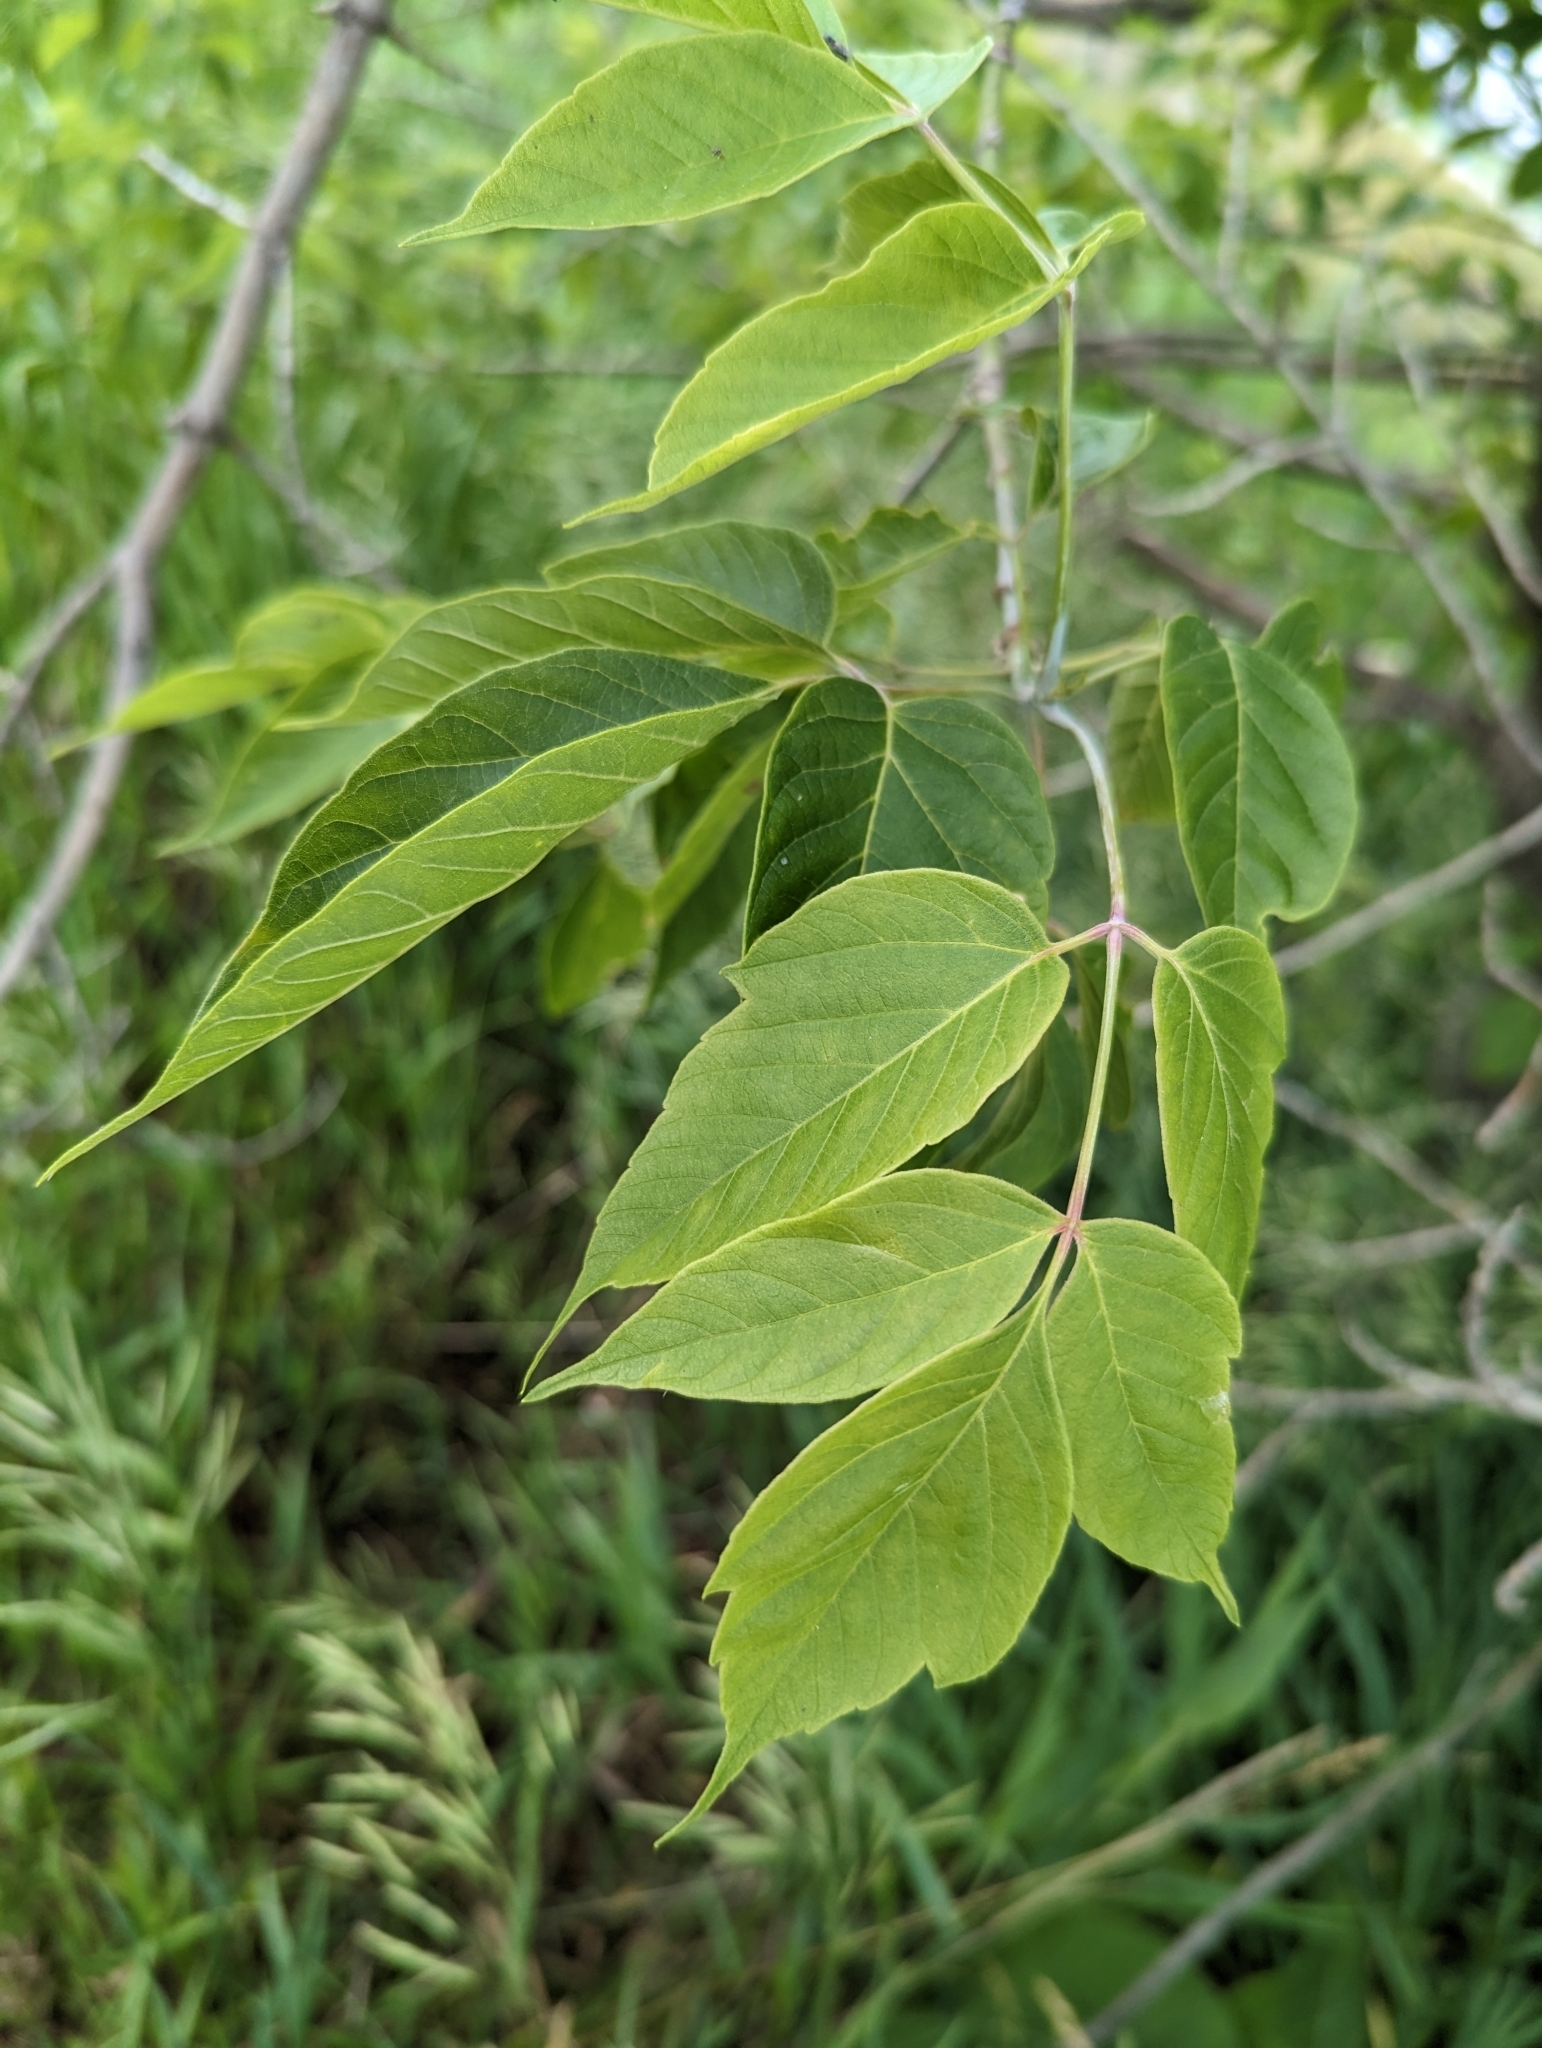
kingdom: Plantae
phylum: Tracheophyta
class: Magnoliopsida
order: Sapindales
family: Sapindaceae
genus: Acer
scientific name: Acer negundo
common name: Ashleaf maple
